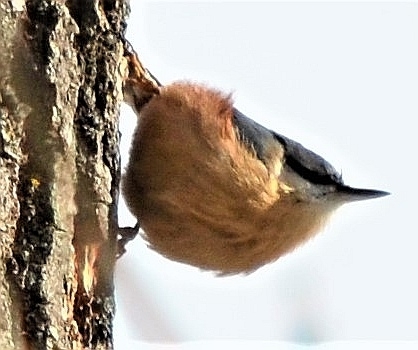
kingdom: Animalia
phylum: Chordata
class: Aves
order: Passeriformes
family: Sittidae
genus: Sitta
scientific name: Sitta europaea
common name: Eurasian nuthatch
